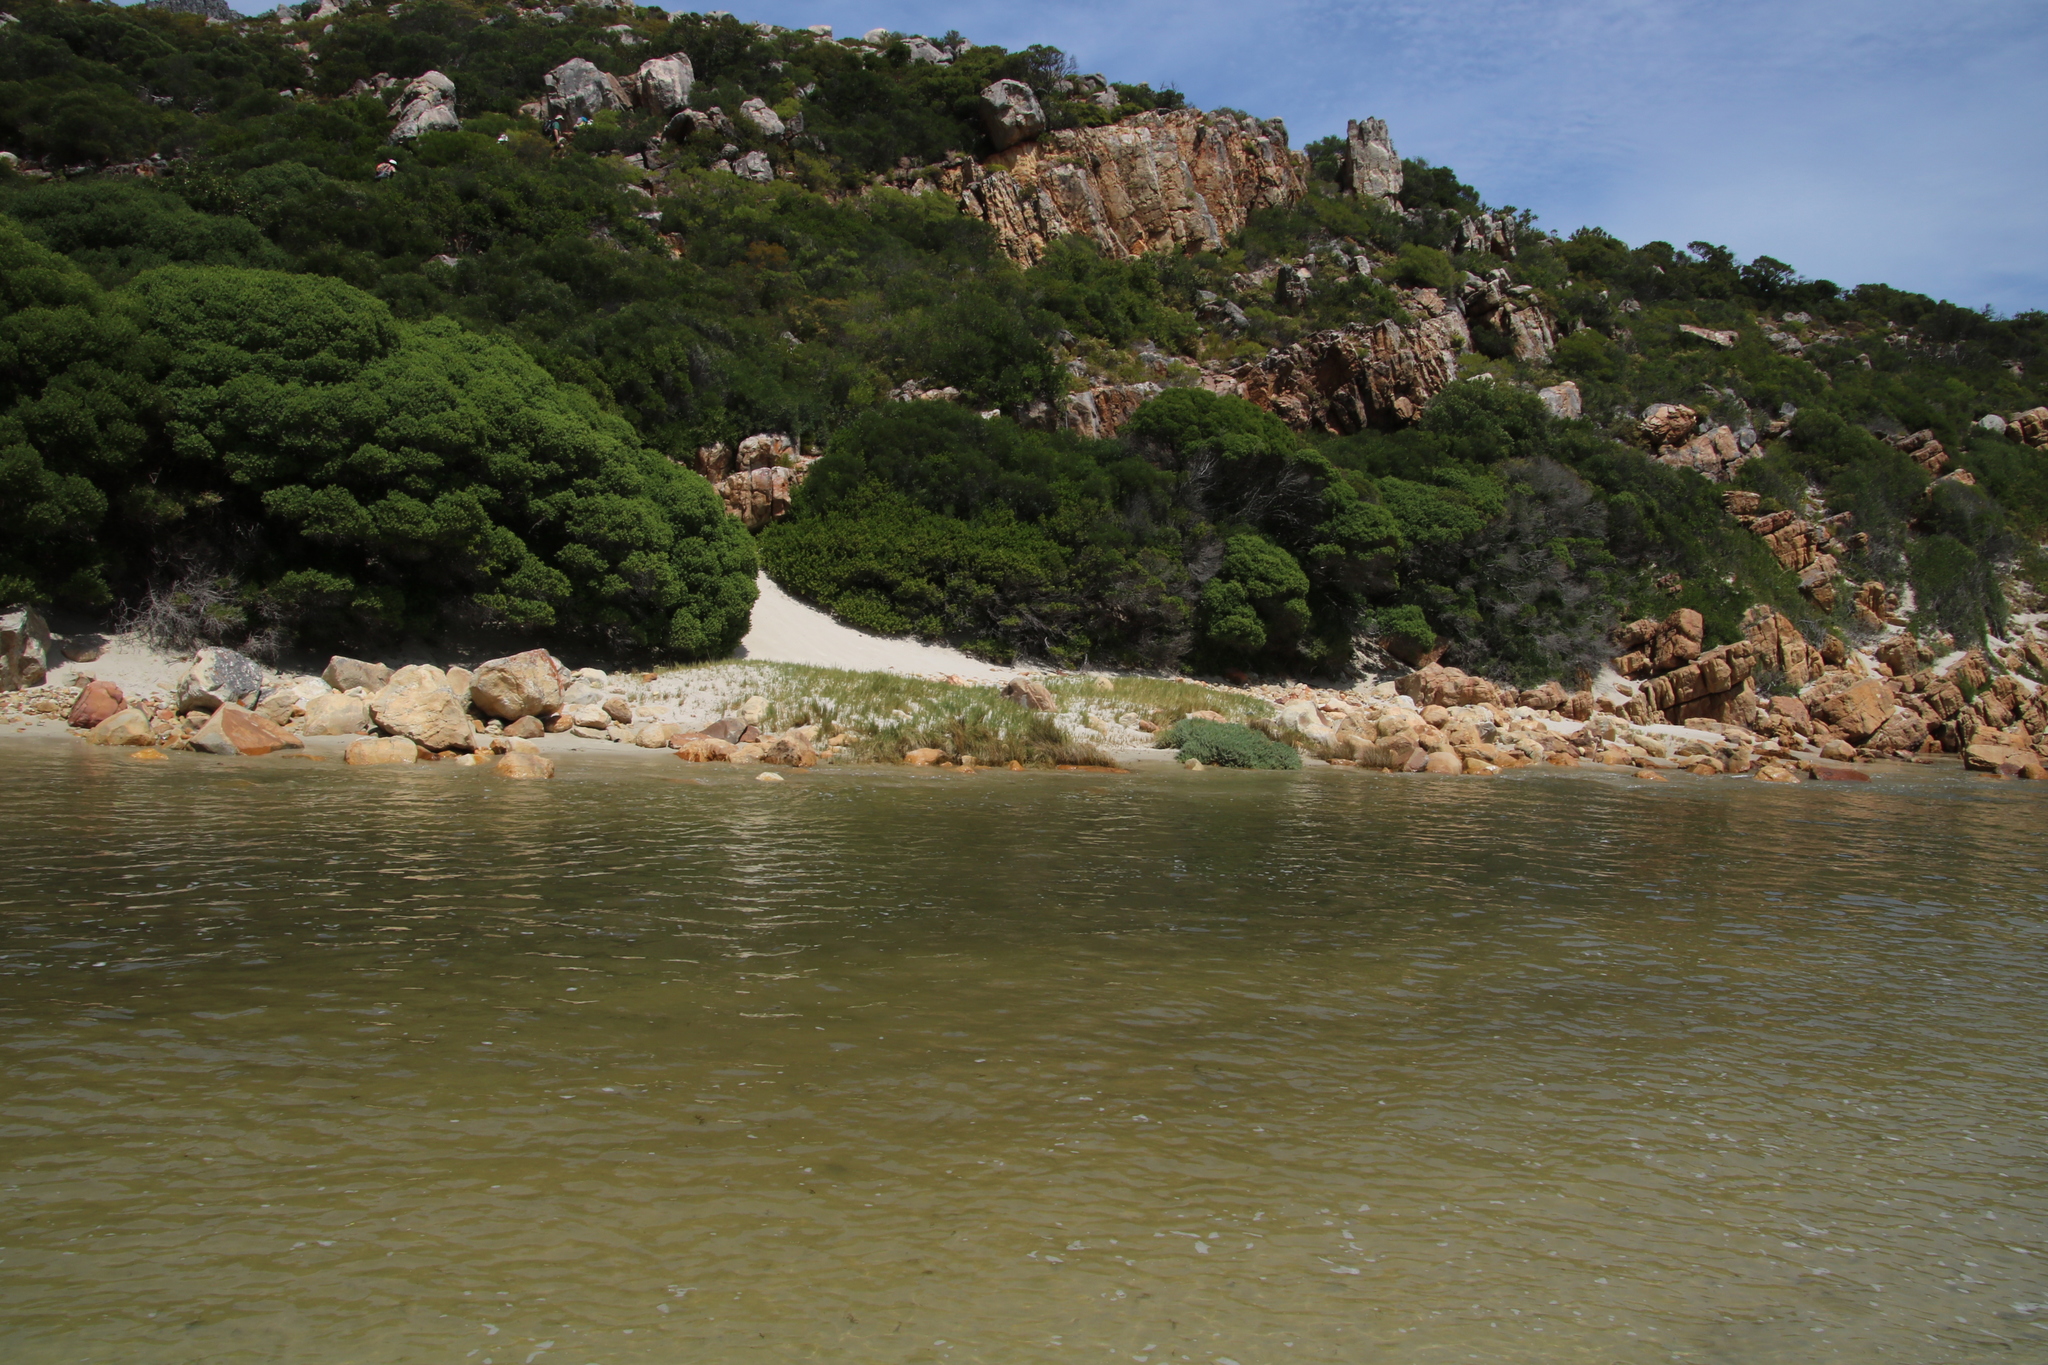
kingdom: Plantae
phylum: Tracheophyta
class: Liliopsida
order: Poales
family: Poaceae
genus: Sporobolus
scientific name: Sporobolus virginicus
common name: Beach dropseed
